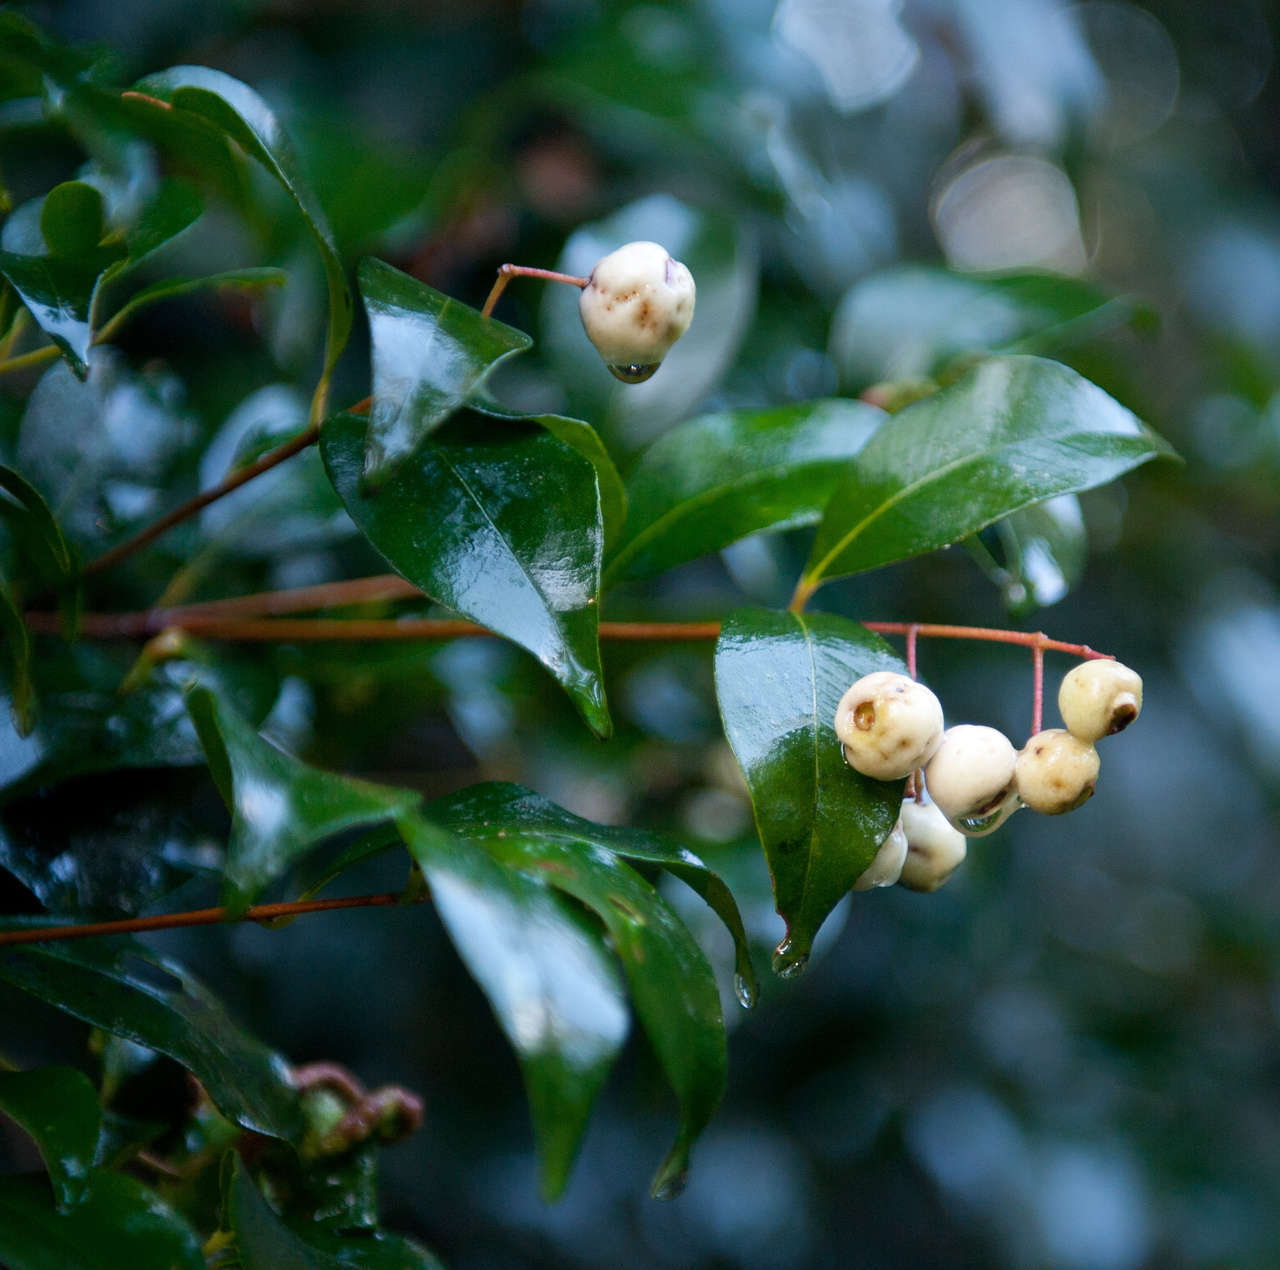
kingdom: Plantae
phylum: Tracheophyta
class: Magnoliopsida
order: Myrtales
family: Myrtaceae
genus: Syzygium
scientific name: Syzygium smithii
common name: Lilly-pilly
